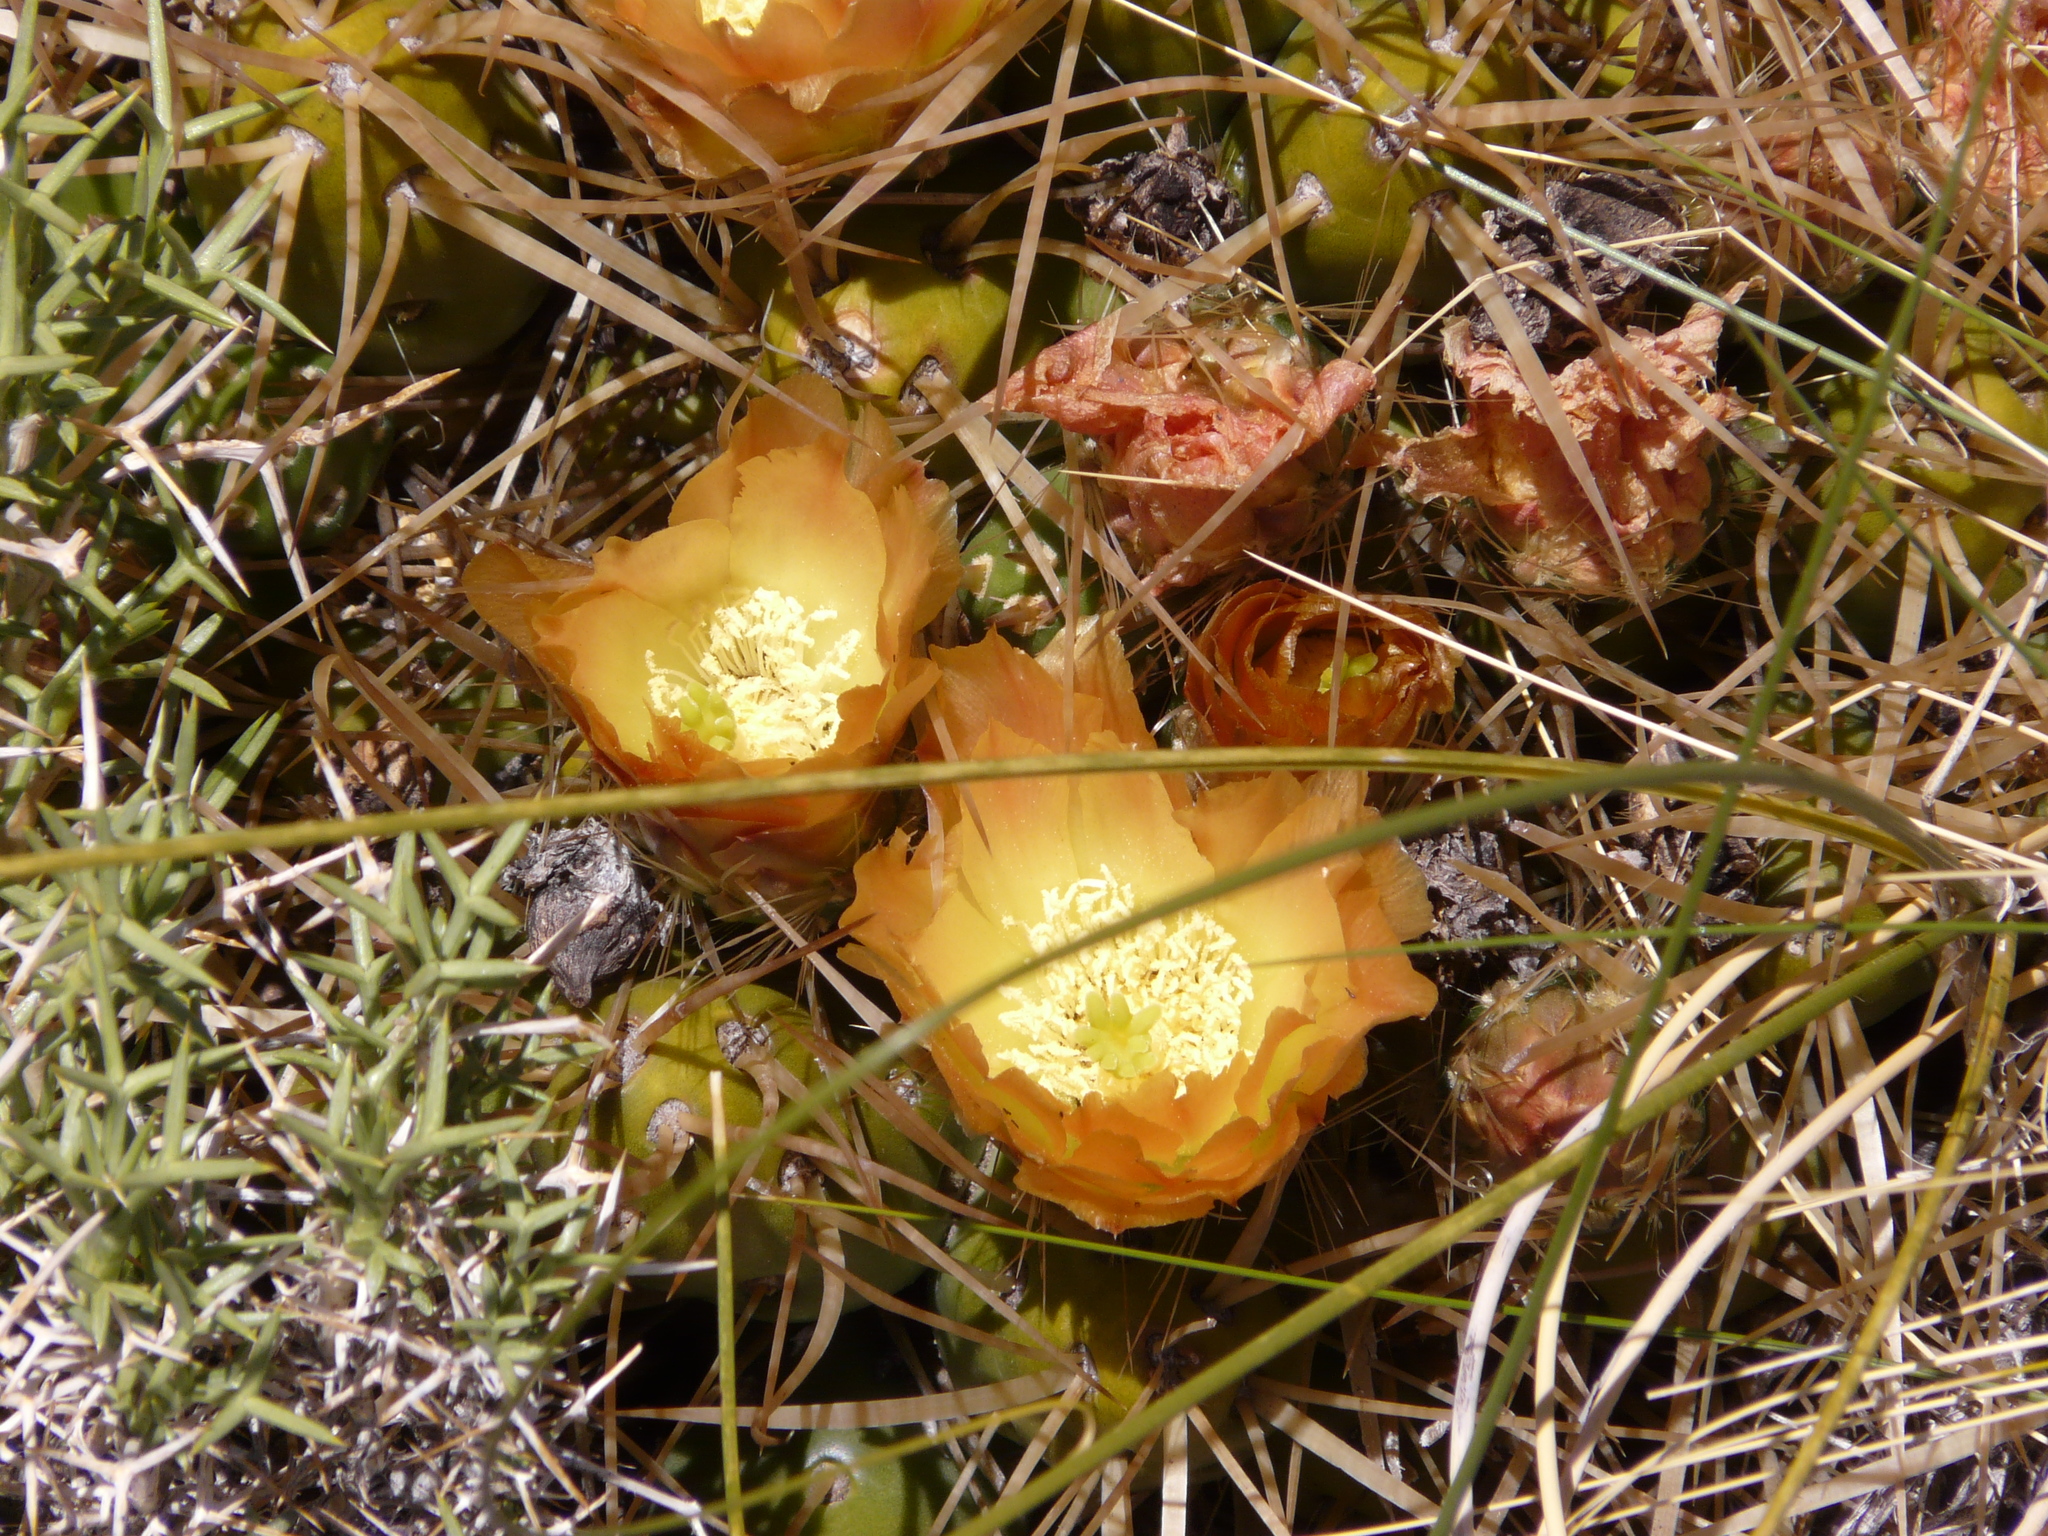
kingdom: Plantae
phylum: Tracheophyta
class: Magnoliopsida
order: Caryophyllales
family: Cactaceae
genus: Maihueniopsis
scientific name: Maihueniopsis platyacantha
